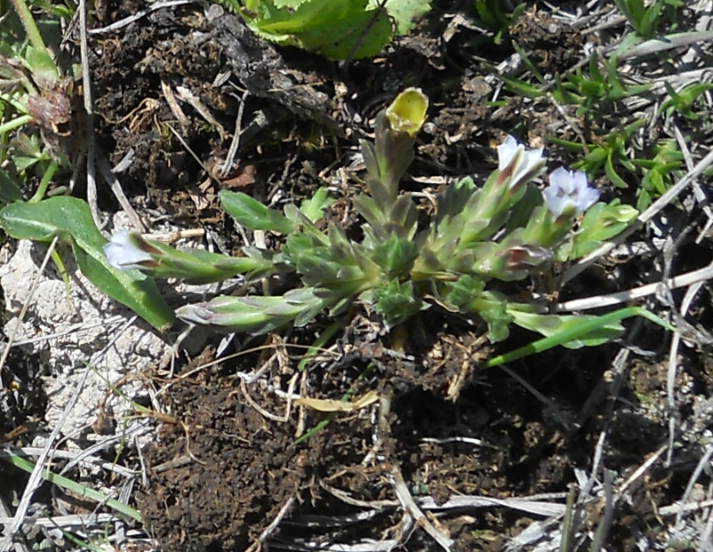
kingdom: Plantae
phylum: Tracheophyta
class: Magnoliopsida
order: Gentianales
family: Gentianaceae
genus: Gentiana
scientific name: Gentiana aquatica
